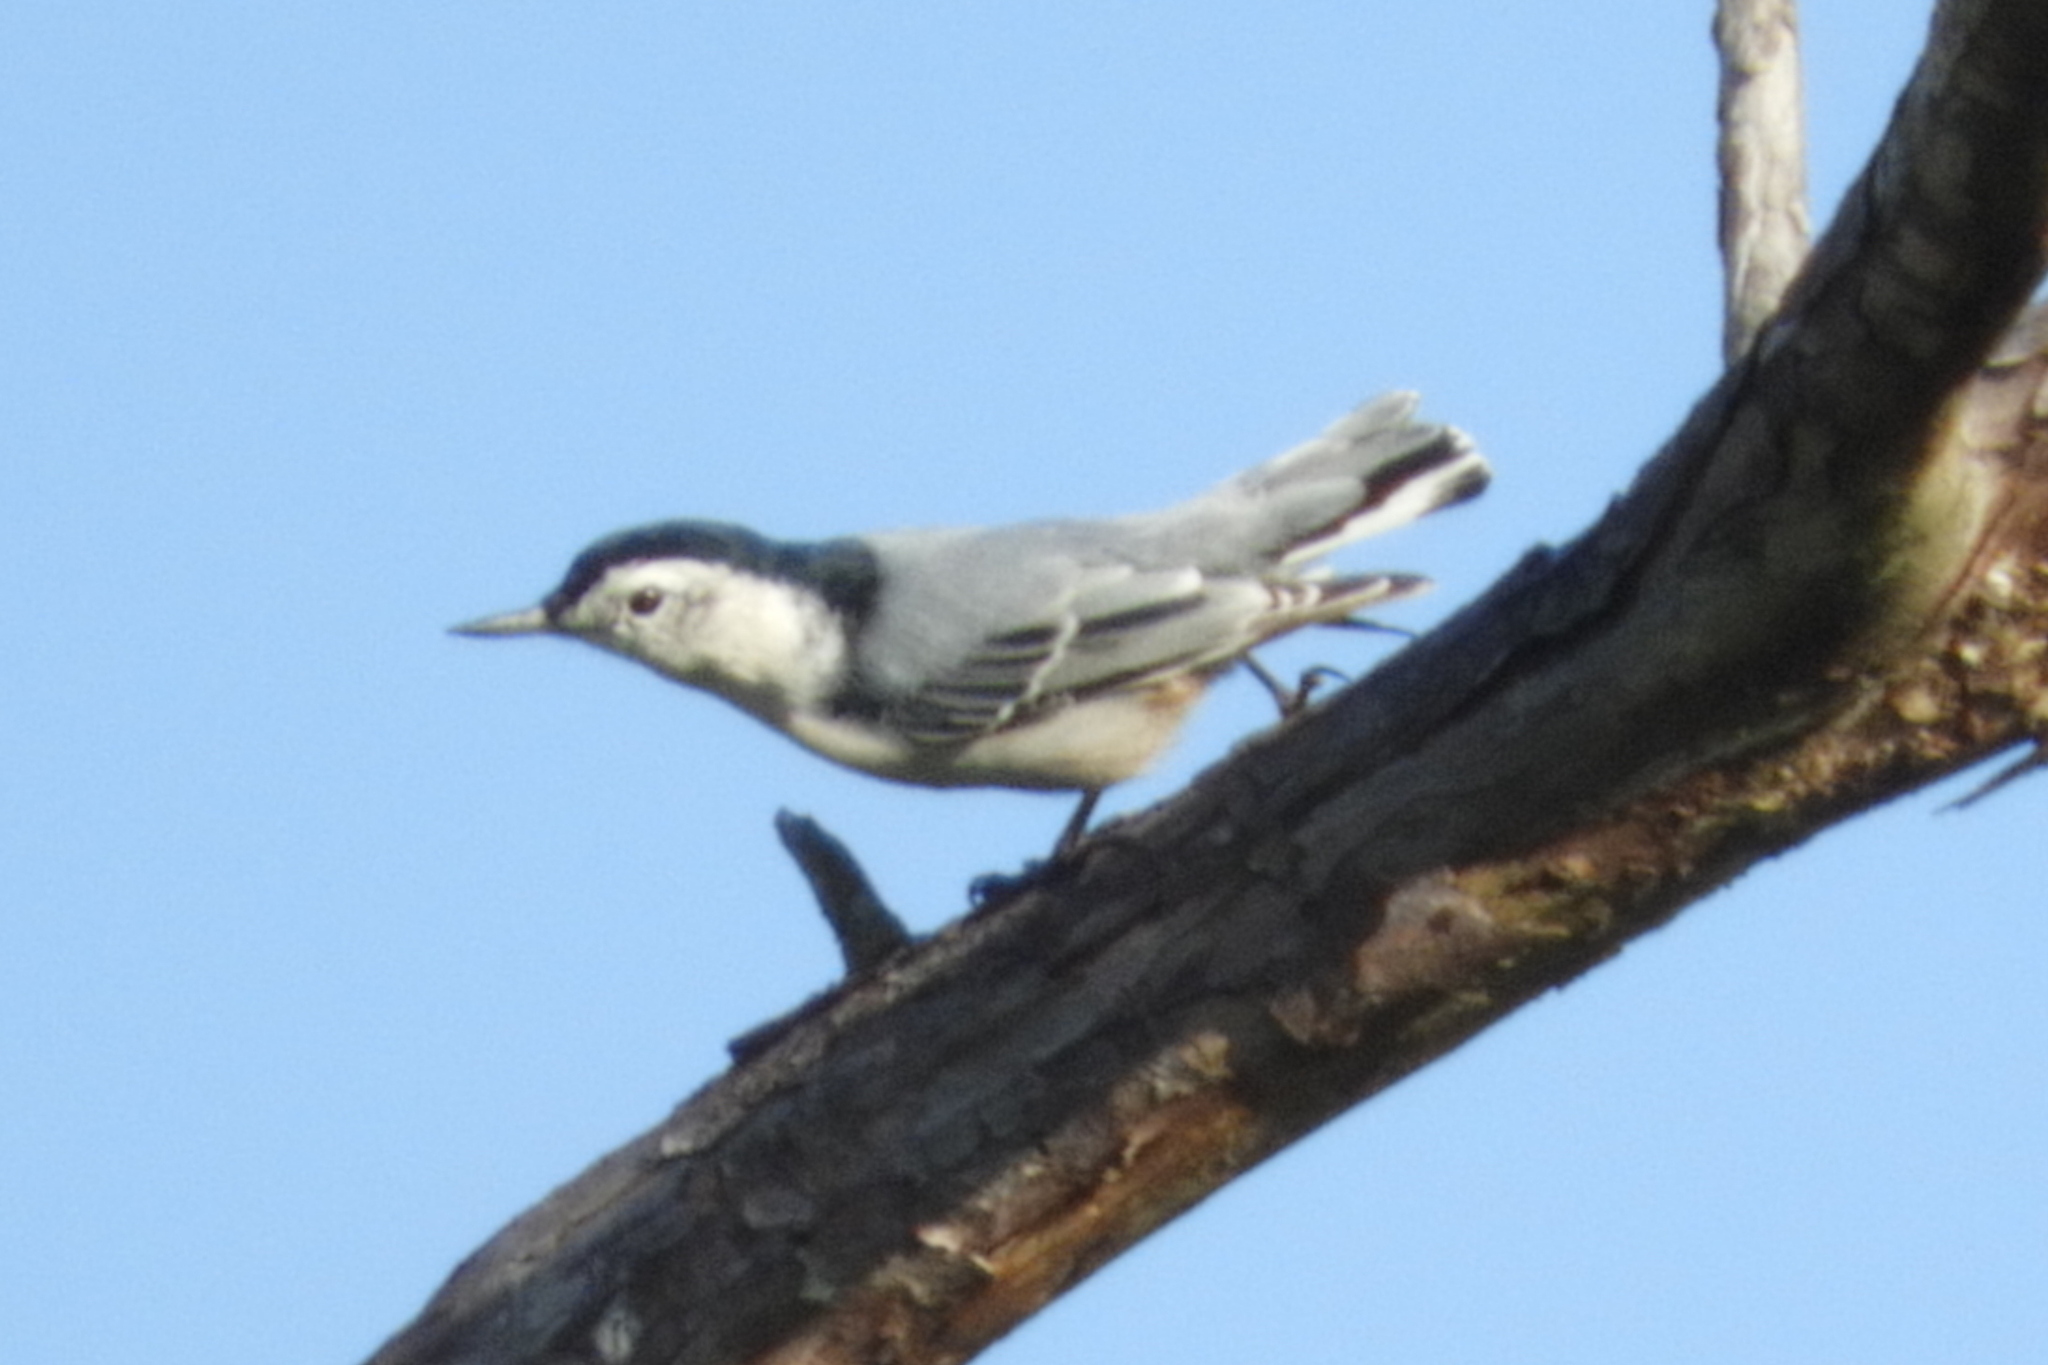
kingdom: Animalia
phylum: Chordata
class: Aves
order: Passeriformes
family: Sittidae
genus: Sitta
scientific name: Sitta carolinensis
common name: White-breasted nuthatch
